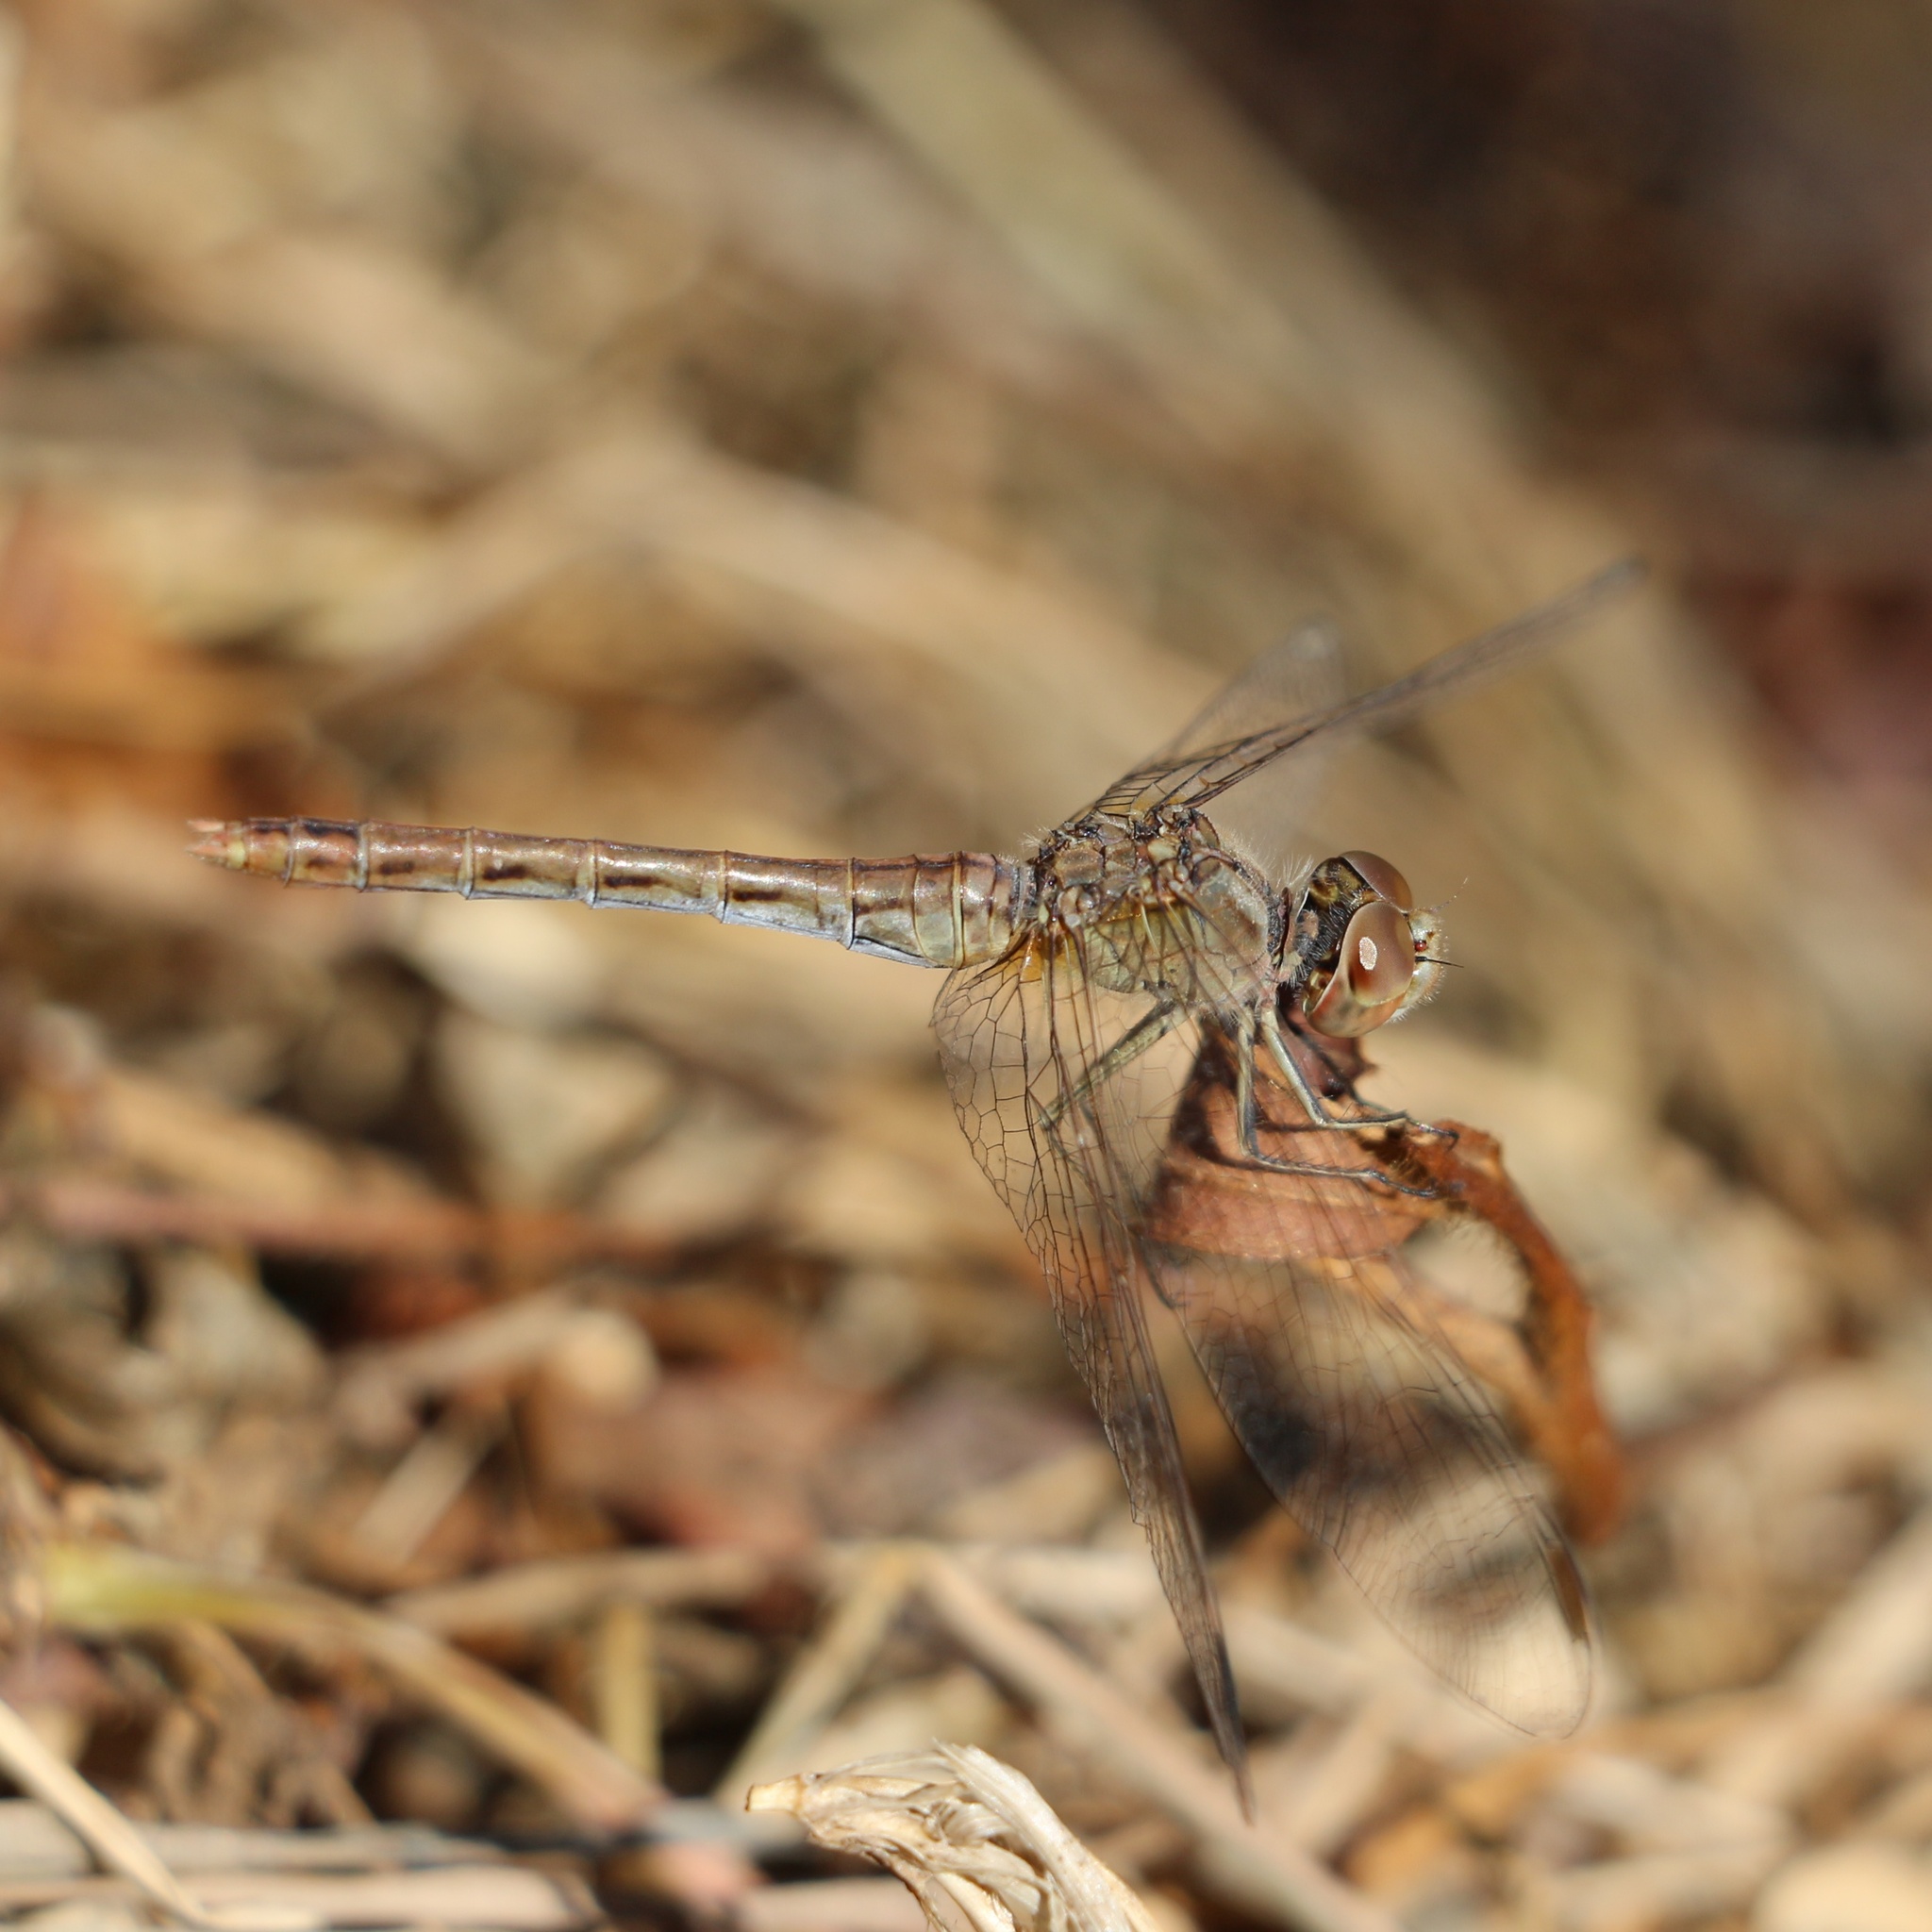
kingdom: Animalia
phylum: Arthropoda
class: Insecta
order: Odonata
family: Libellulidae
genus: Sympetrum
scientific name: Sympetrum meridionale
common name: Southern darter
